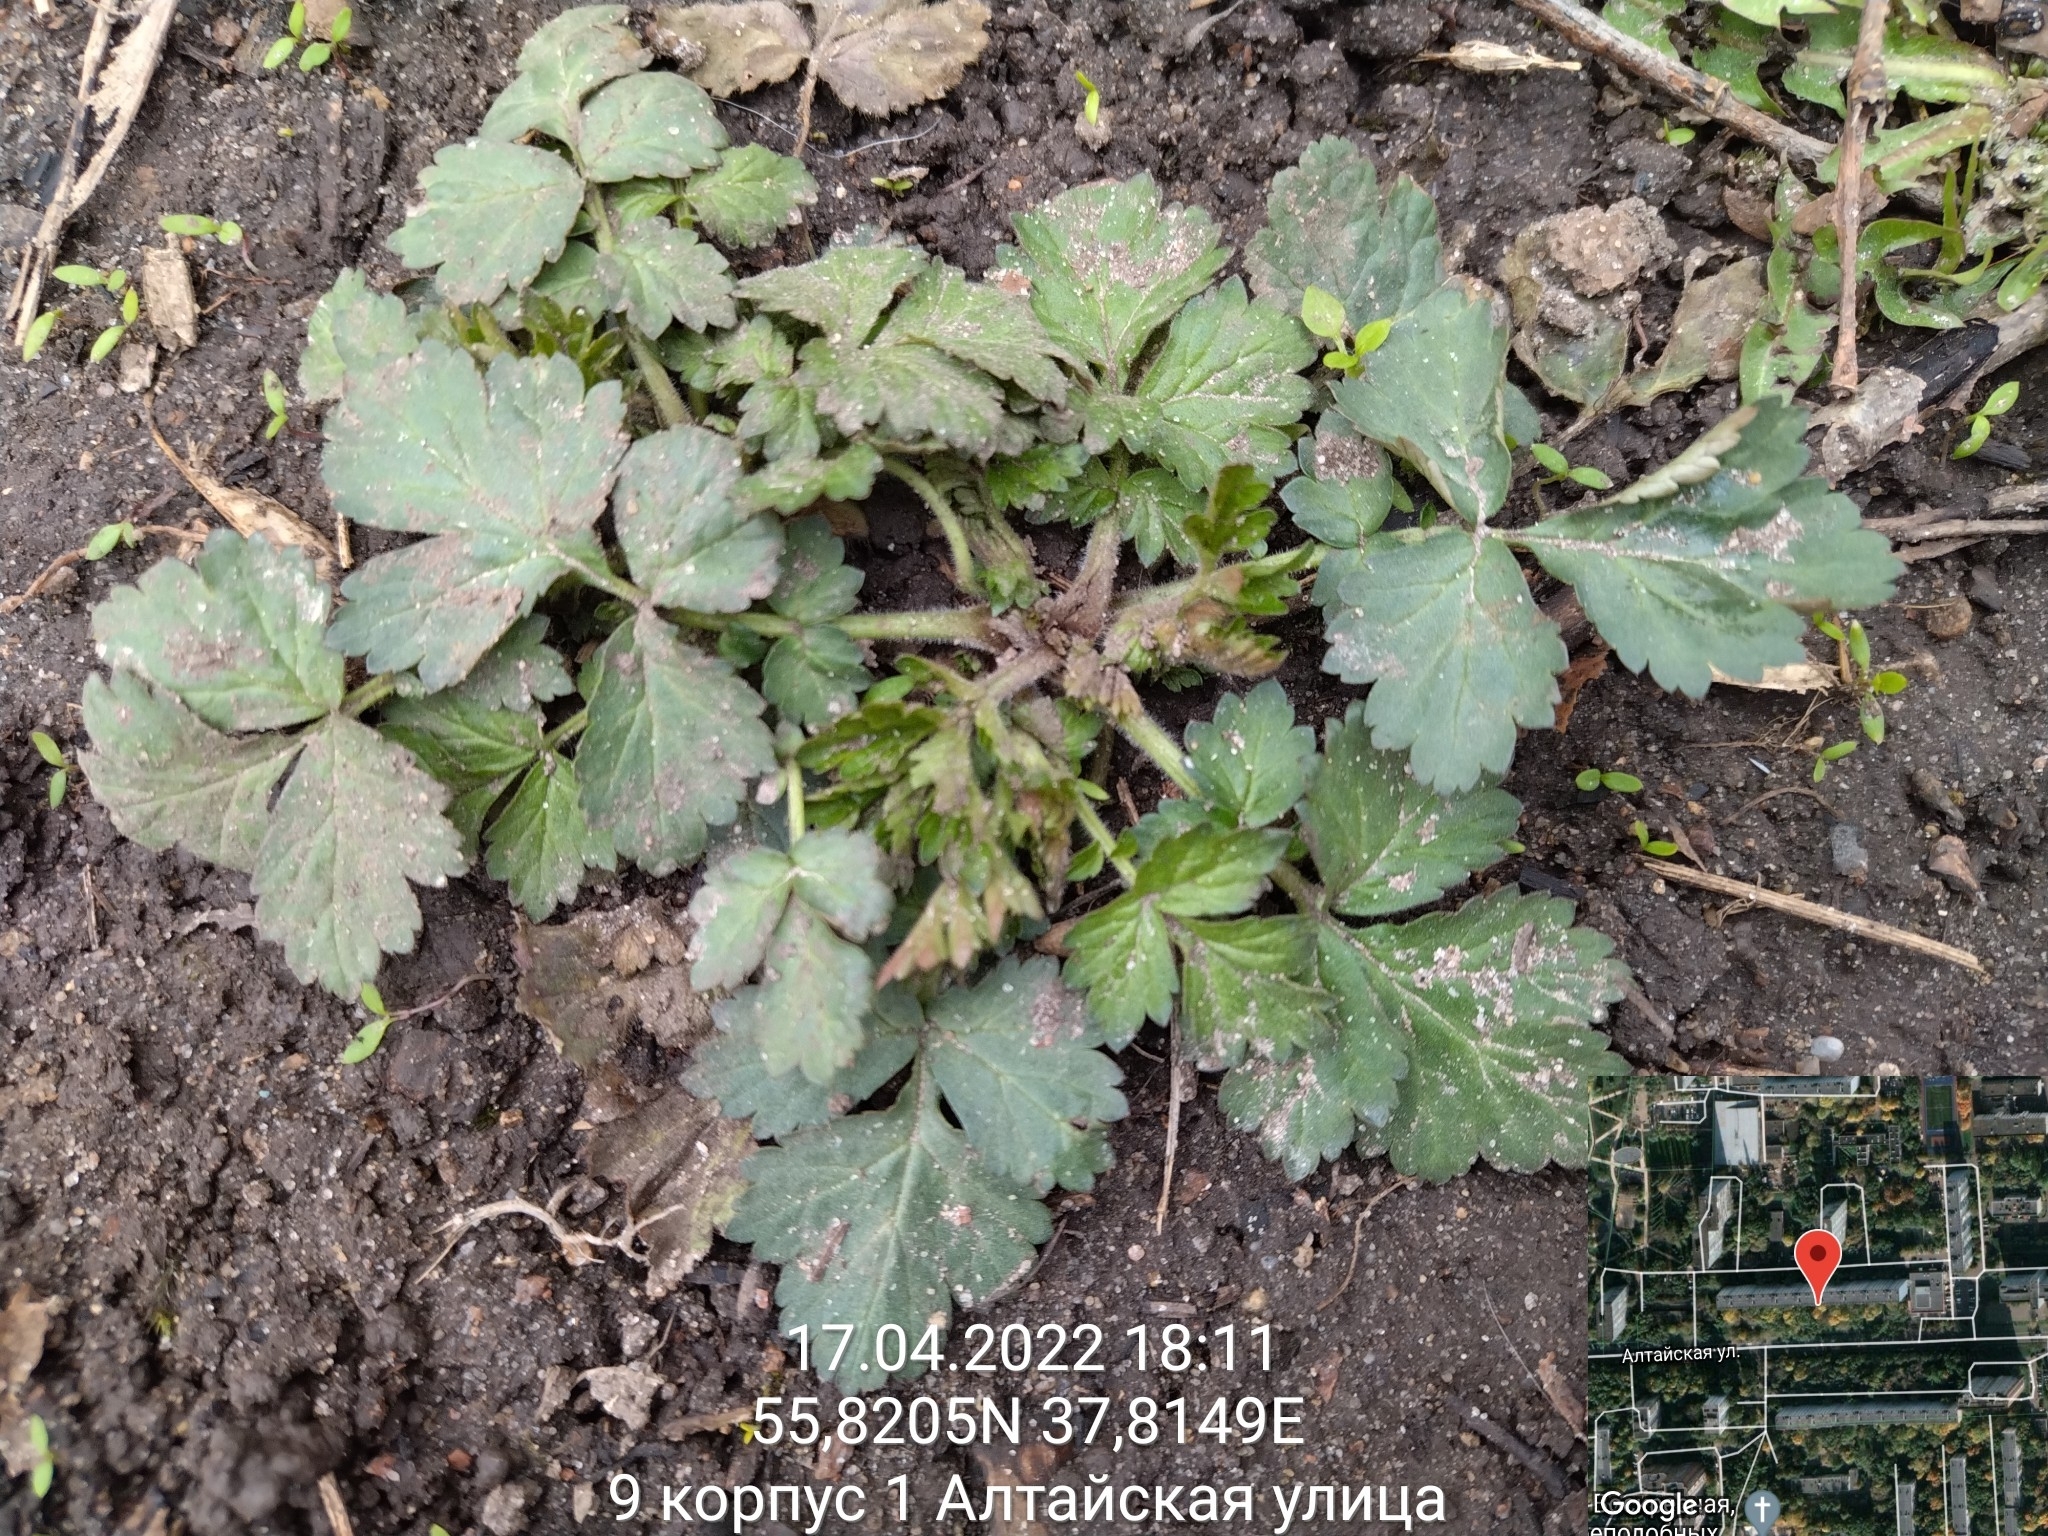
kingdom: Plantae
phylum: Tracheophyta
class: Magnoliopsida
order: Rosales
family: Rosaceae
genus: Geum
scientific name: Geum urbanum
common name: Wood avens
